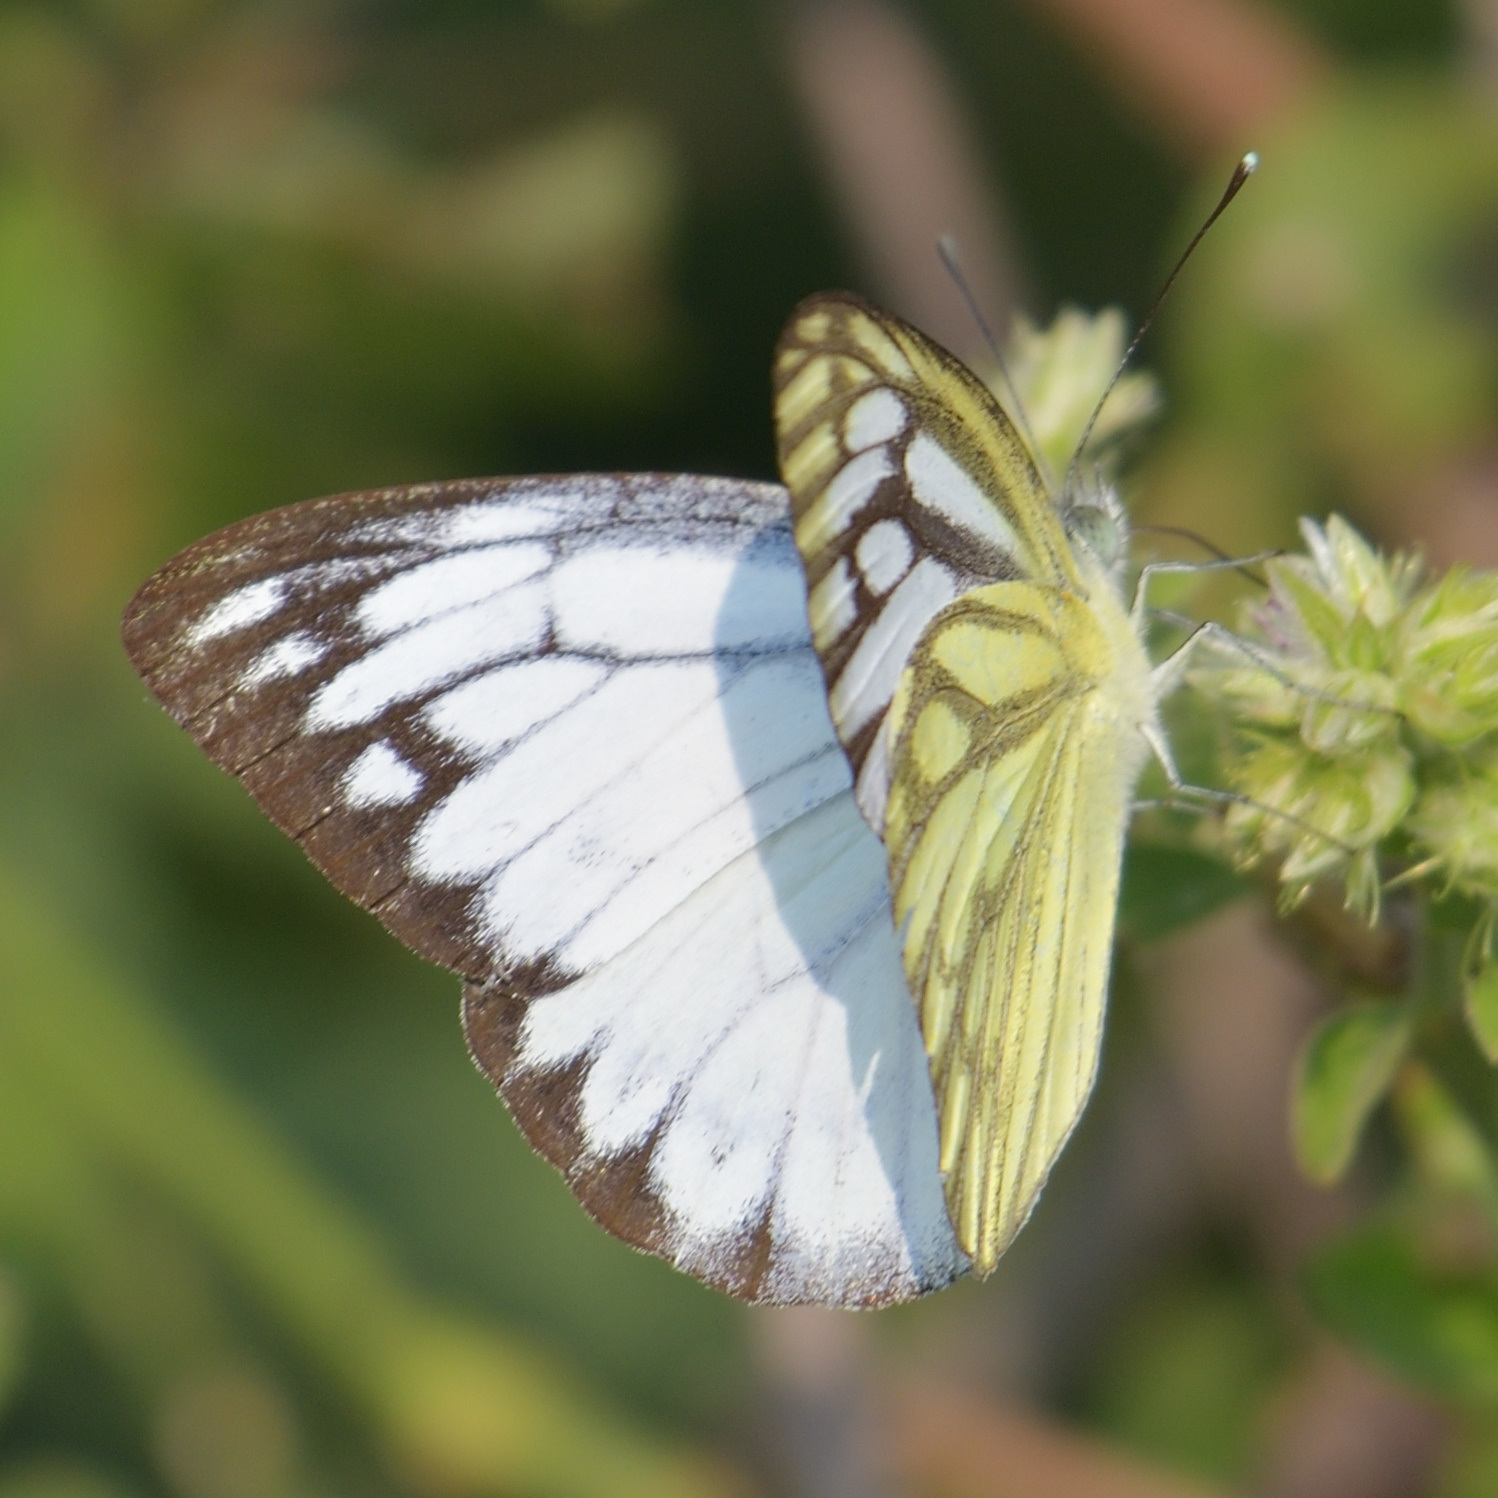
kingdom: Animalia
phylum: Arthropoda
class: Insecta
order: Lepidoptera
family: Pieridae
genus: Cepora
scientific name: Cepora nerissa
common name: Common gull
